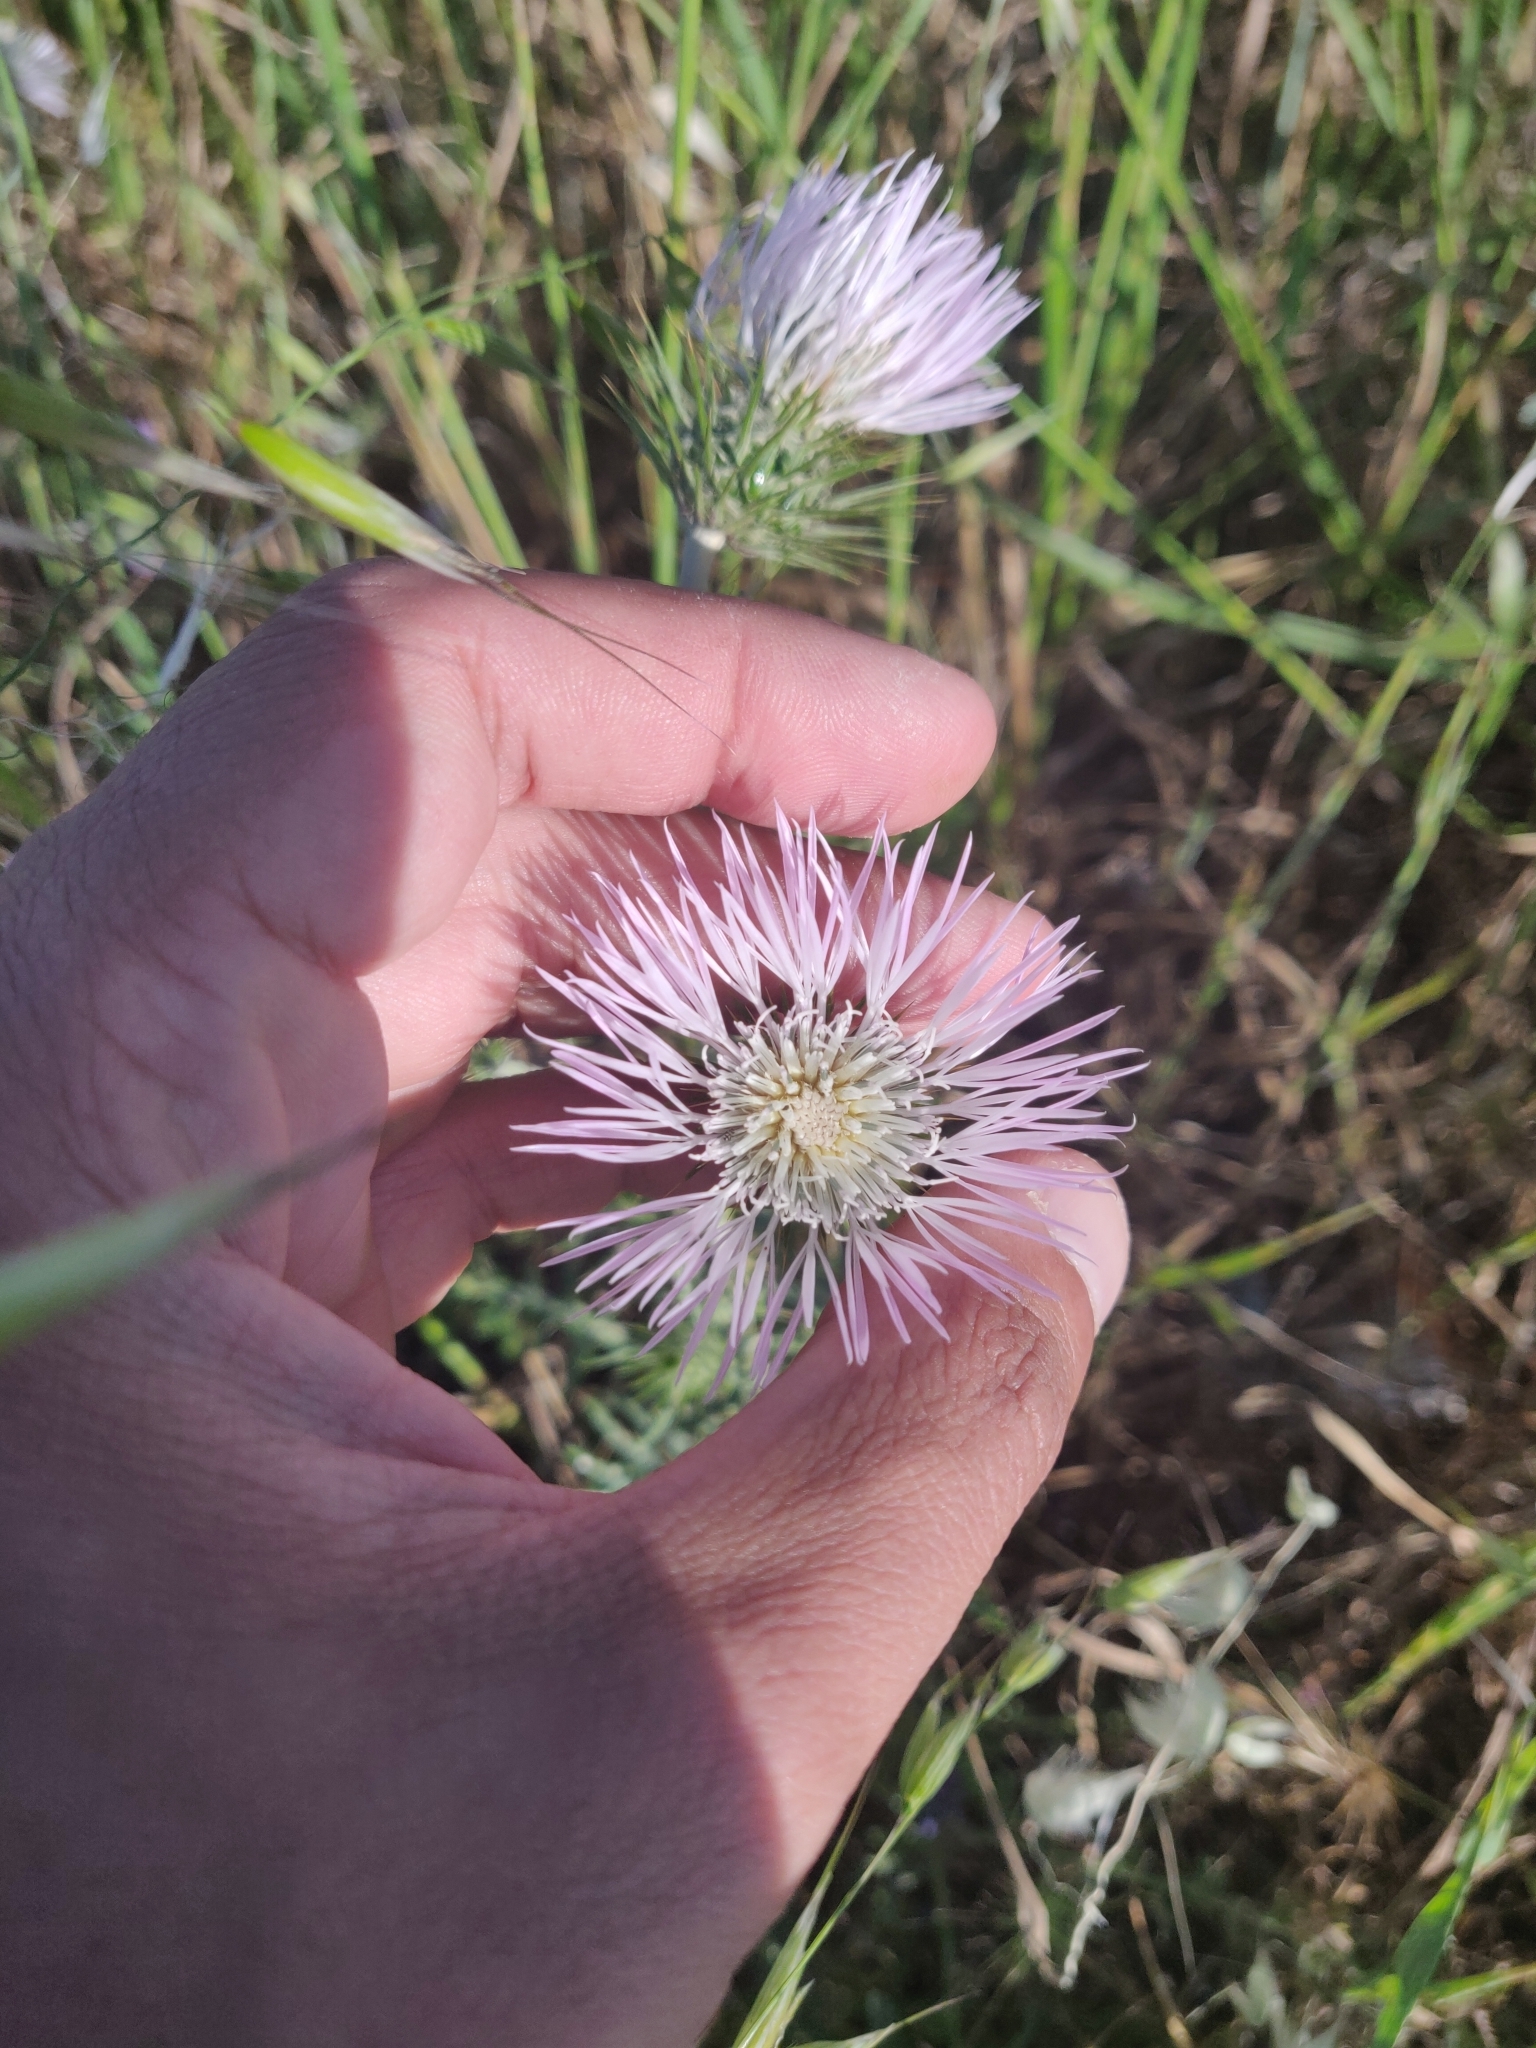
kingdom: Plantae
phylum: Tracheophyta
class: Magnoliopsida
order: Asterales
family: Asteraceae
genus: Galactites
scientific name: Galactites tomentosa
